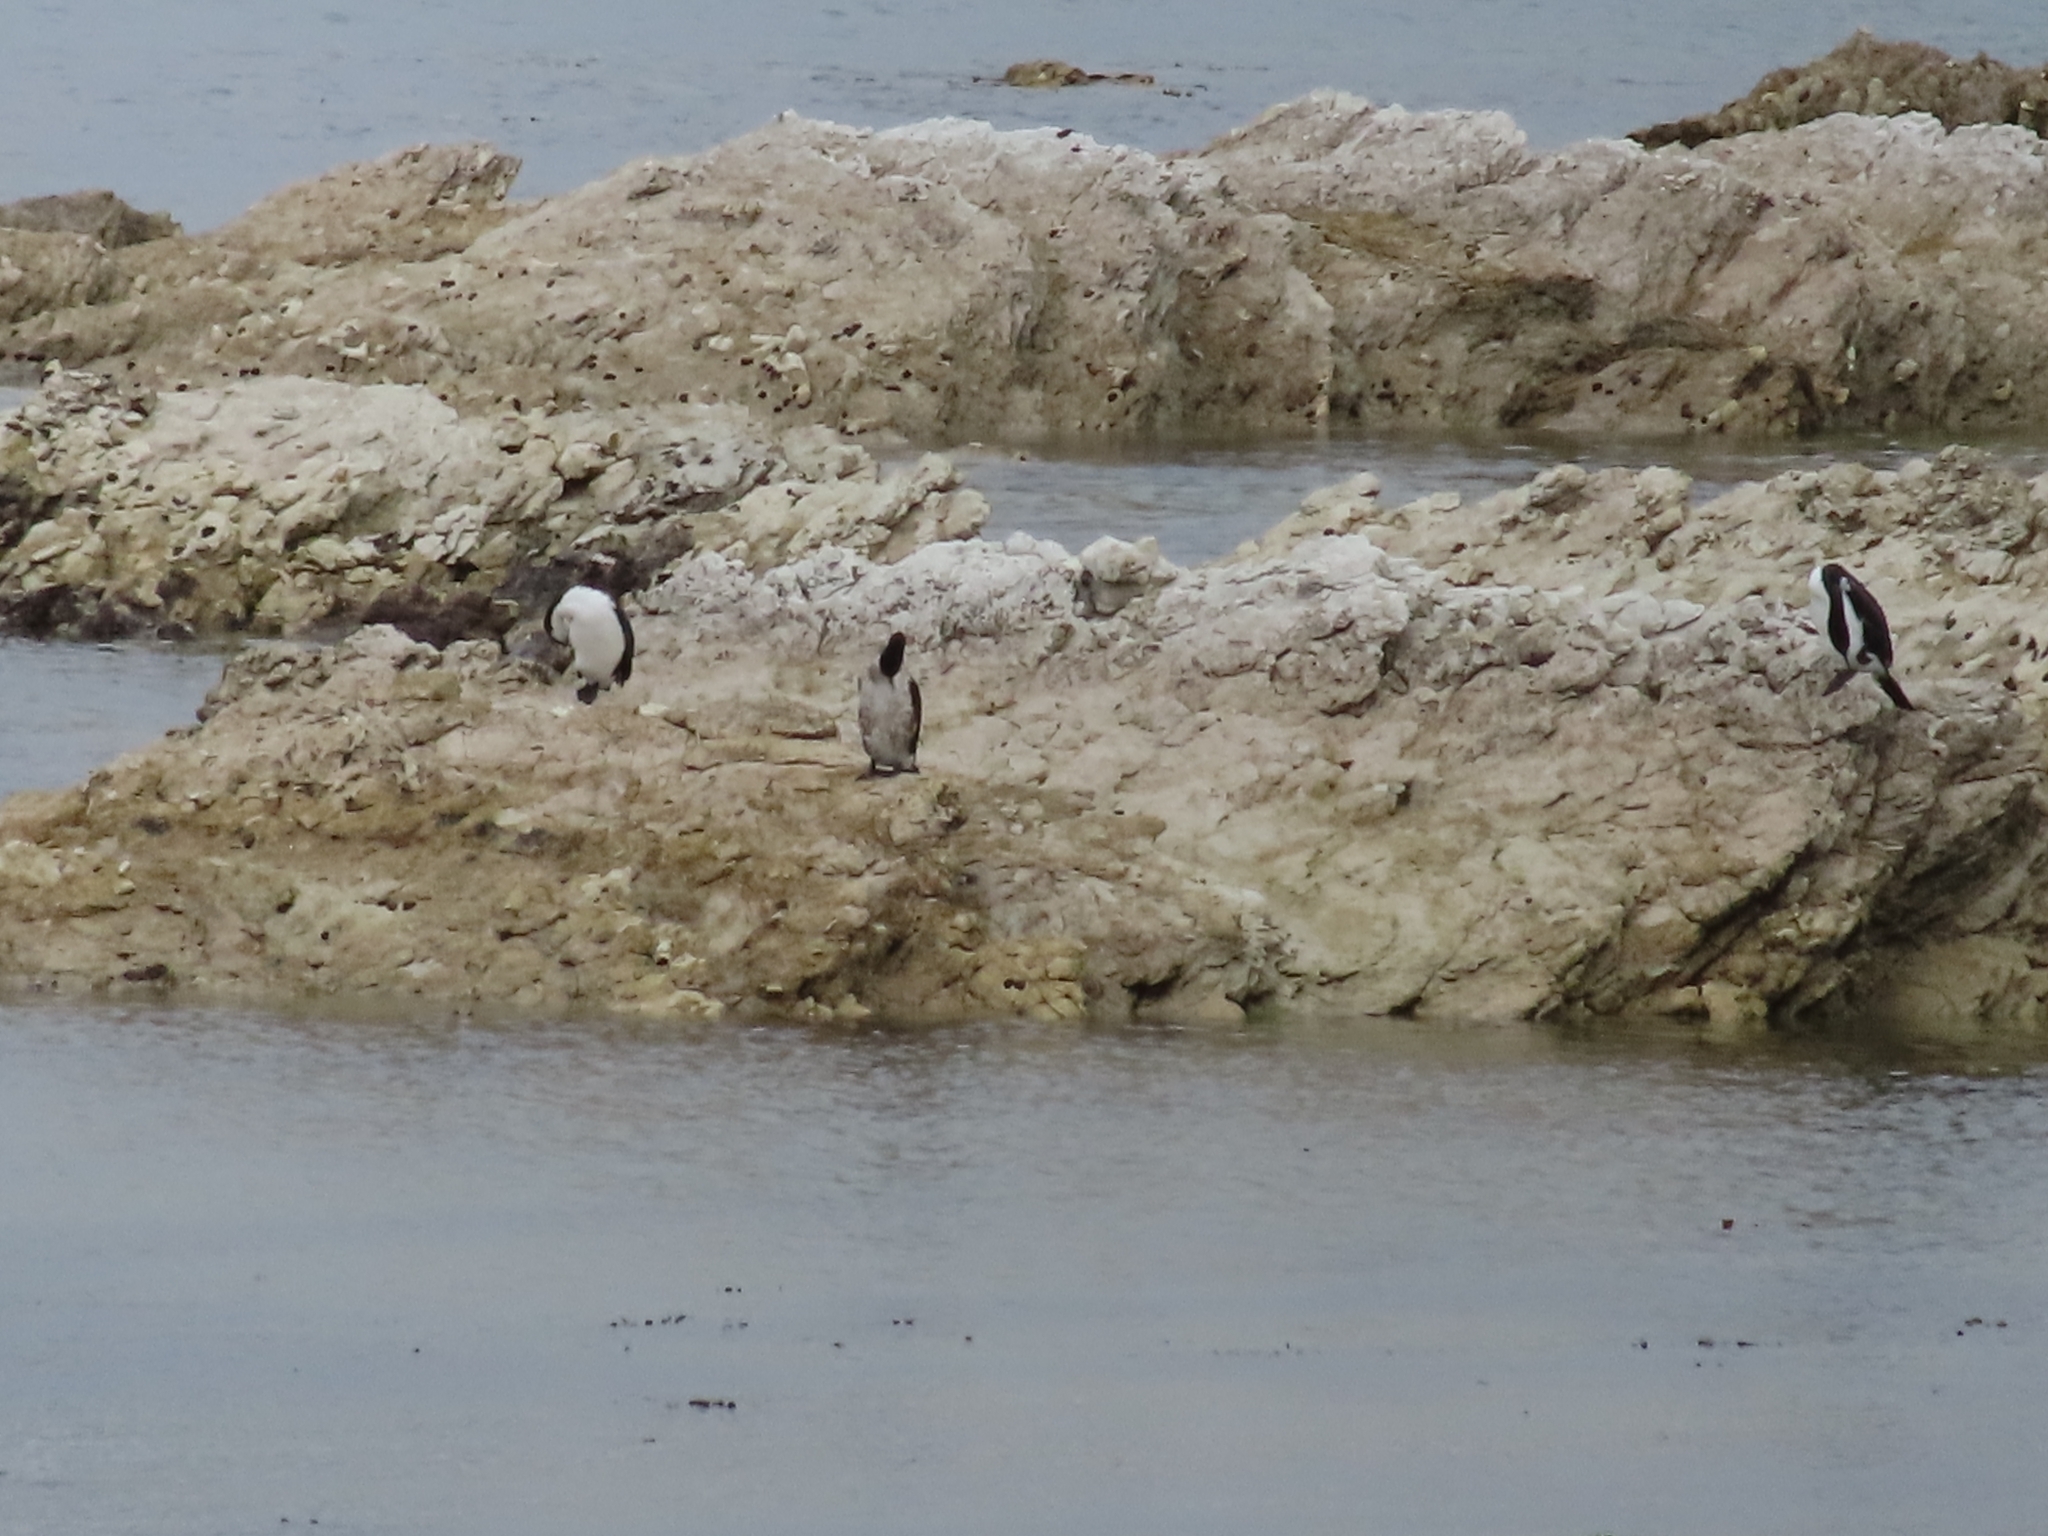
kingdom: Animalia
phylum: Chordata
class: Aves
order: Suliformes
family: Phalacrocoracidae
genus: Phalacrocorax
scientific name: Phalacrocorax varius
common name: Pied cormorant
